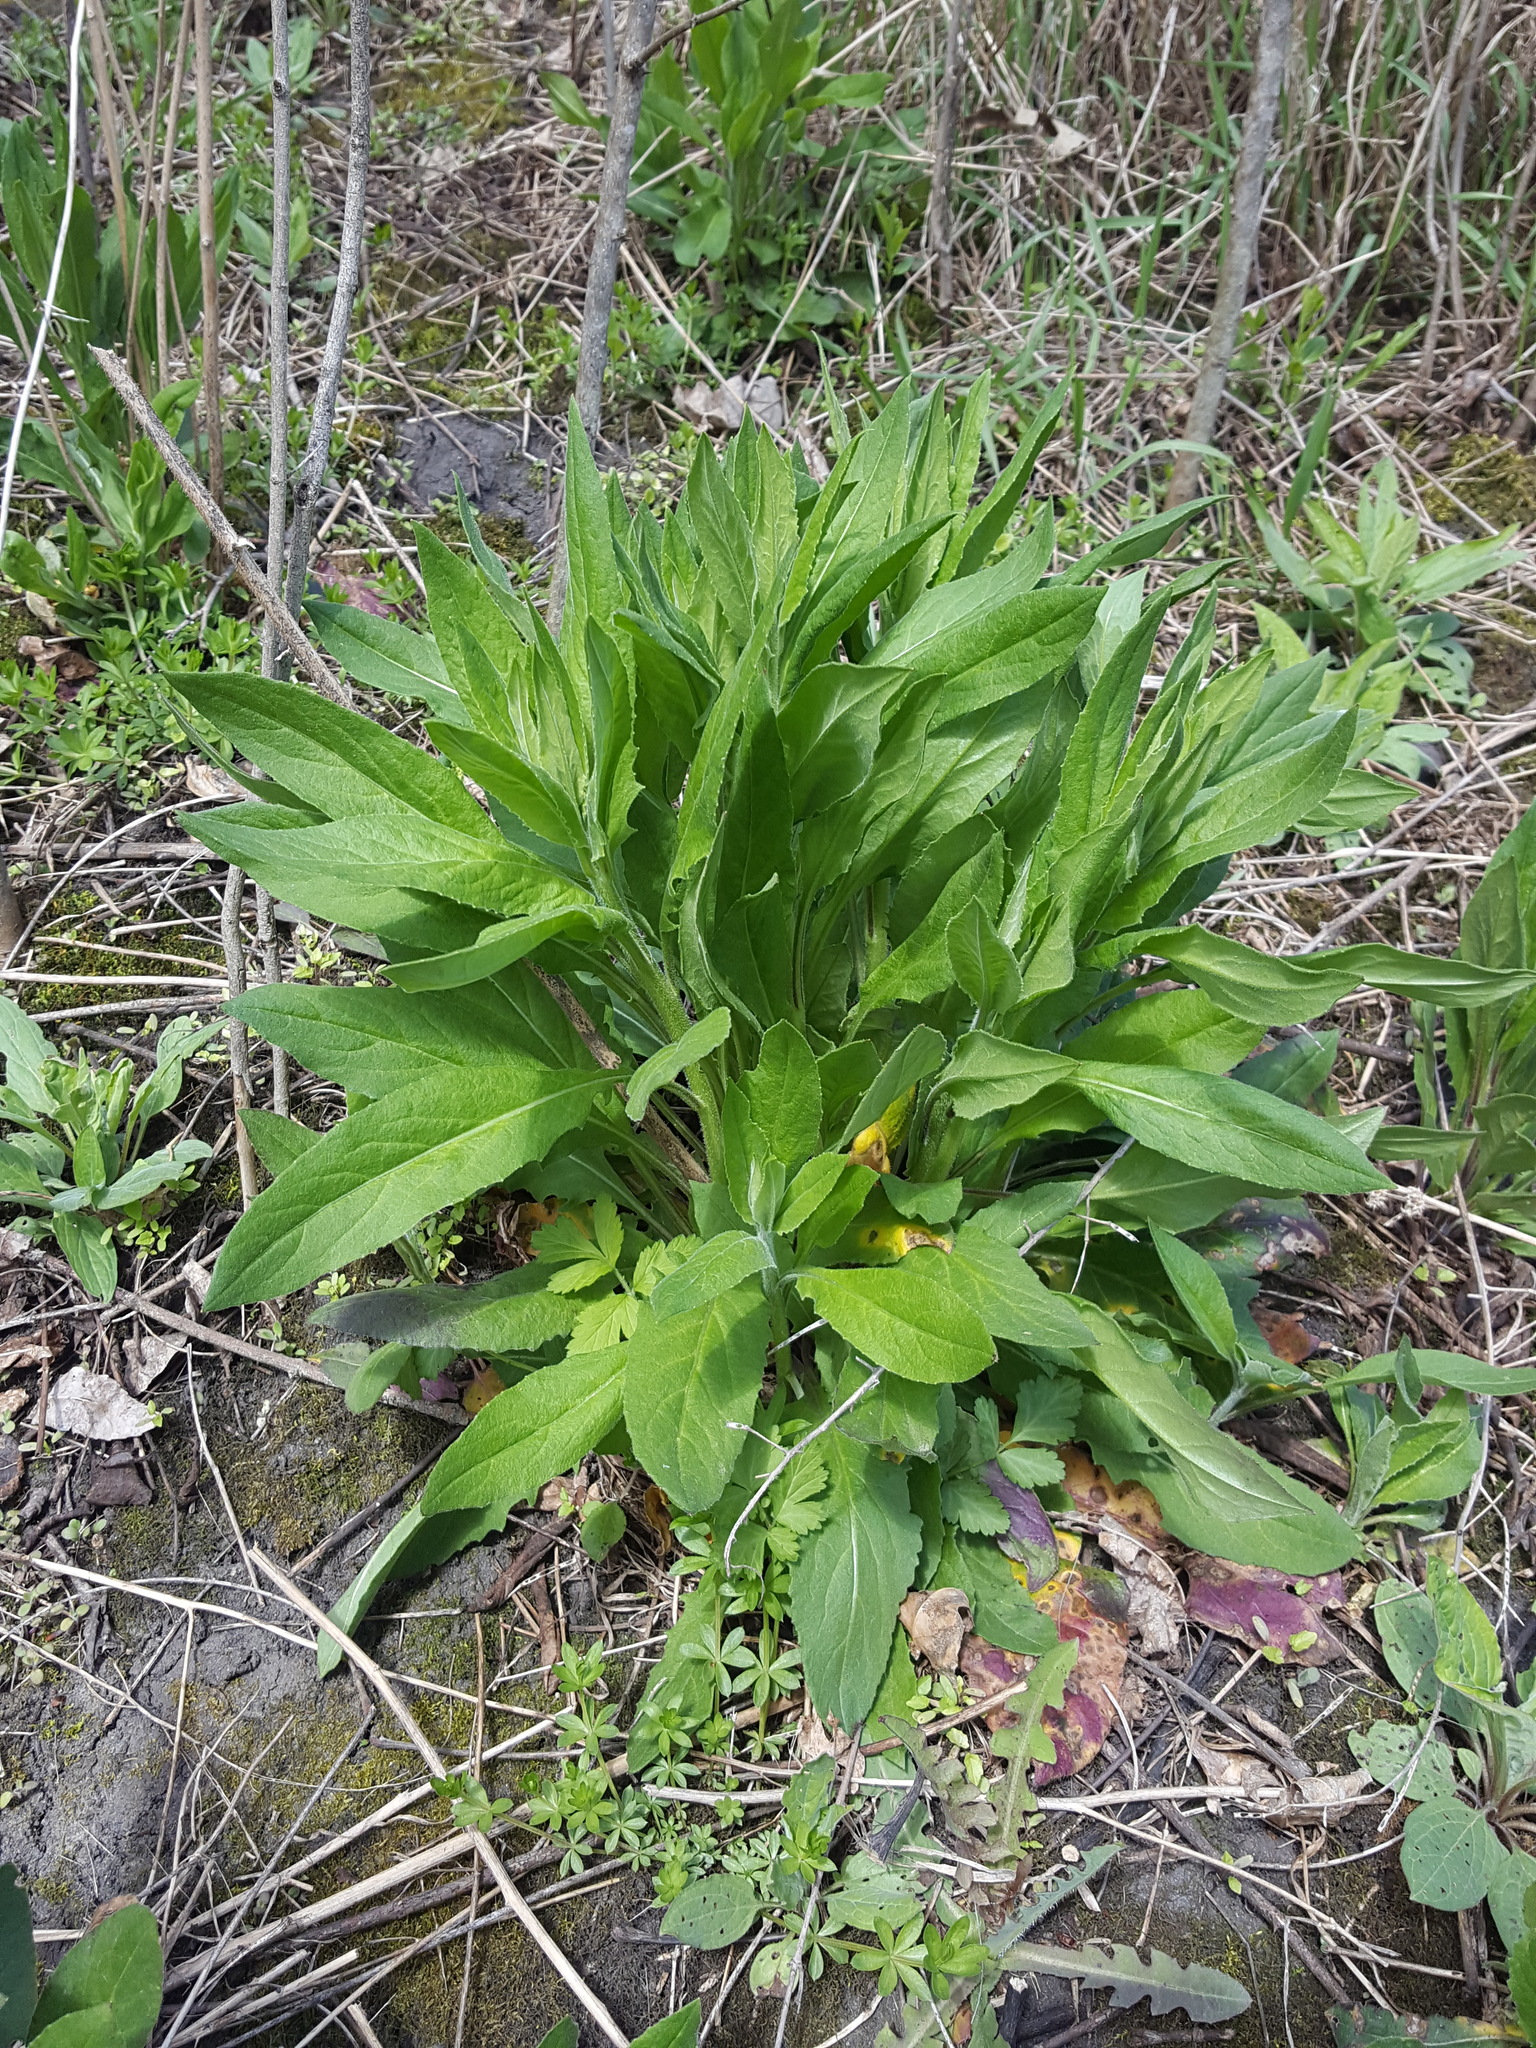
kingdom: Plantae
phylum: Tracheophyta
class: Magnoliopsida
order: Brassicales
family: Brassicaceae
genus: Hesperis
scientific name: Hesperis matronalis
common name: Dame's-violet
